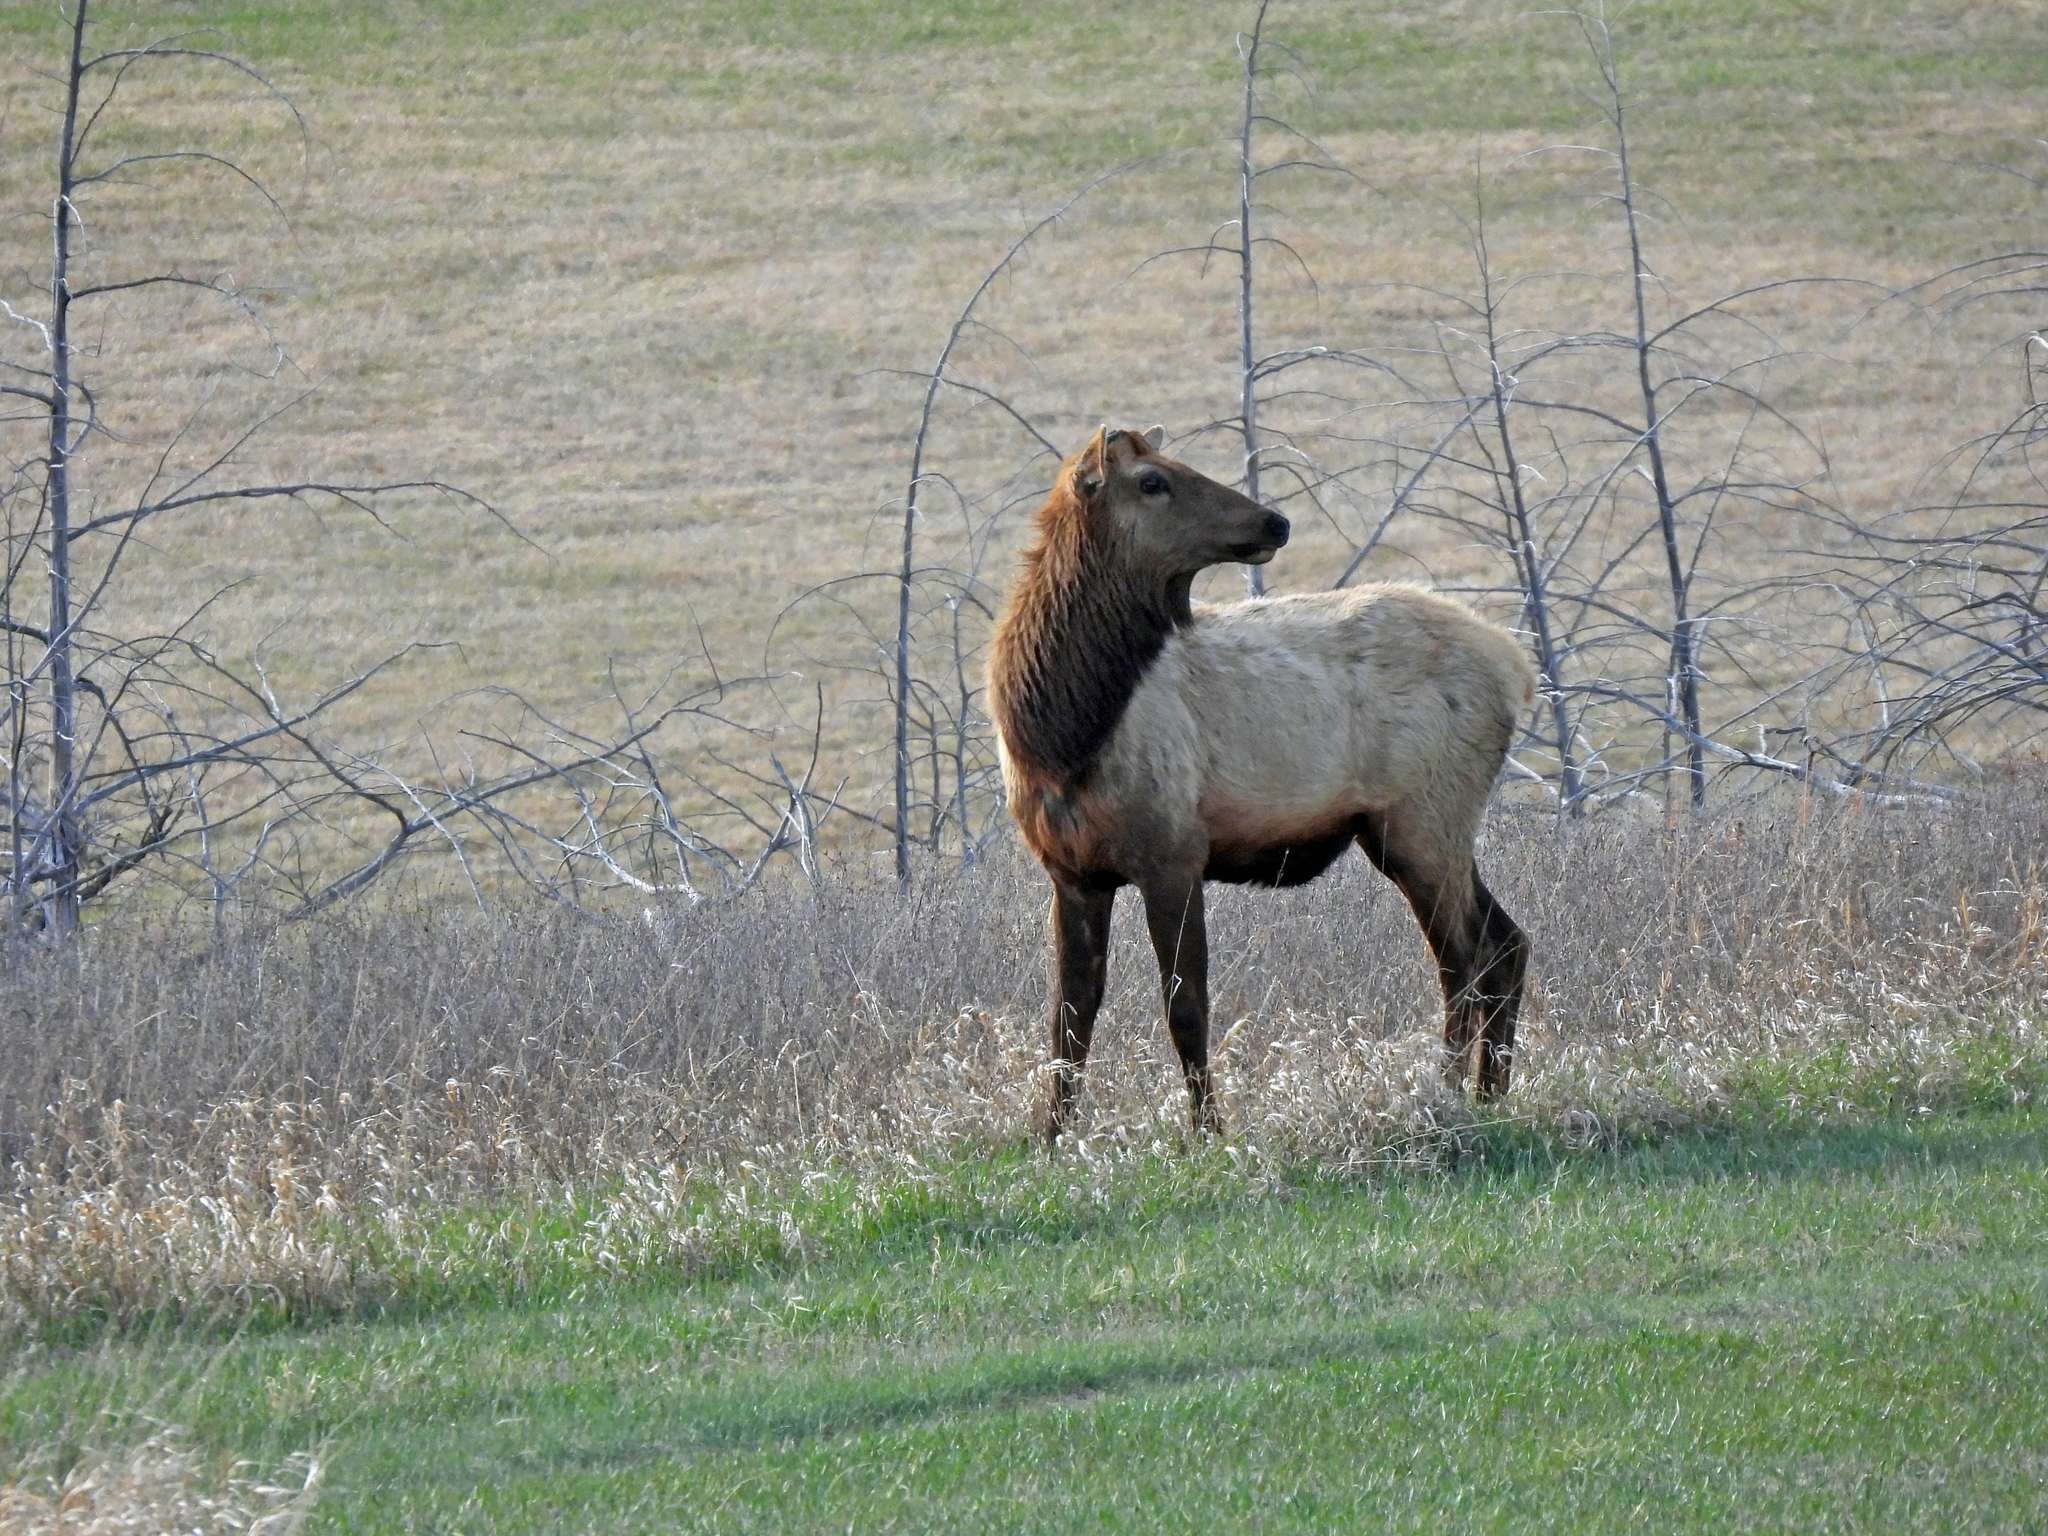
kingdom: Animalia
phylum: Chordata
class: Mammalia
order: Artiodactyla
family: Cervidae
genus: Cervus
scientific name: Cervus elaphus
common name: Red deer
